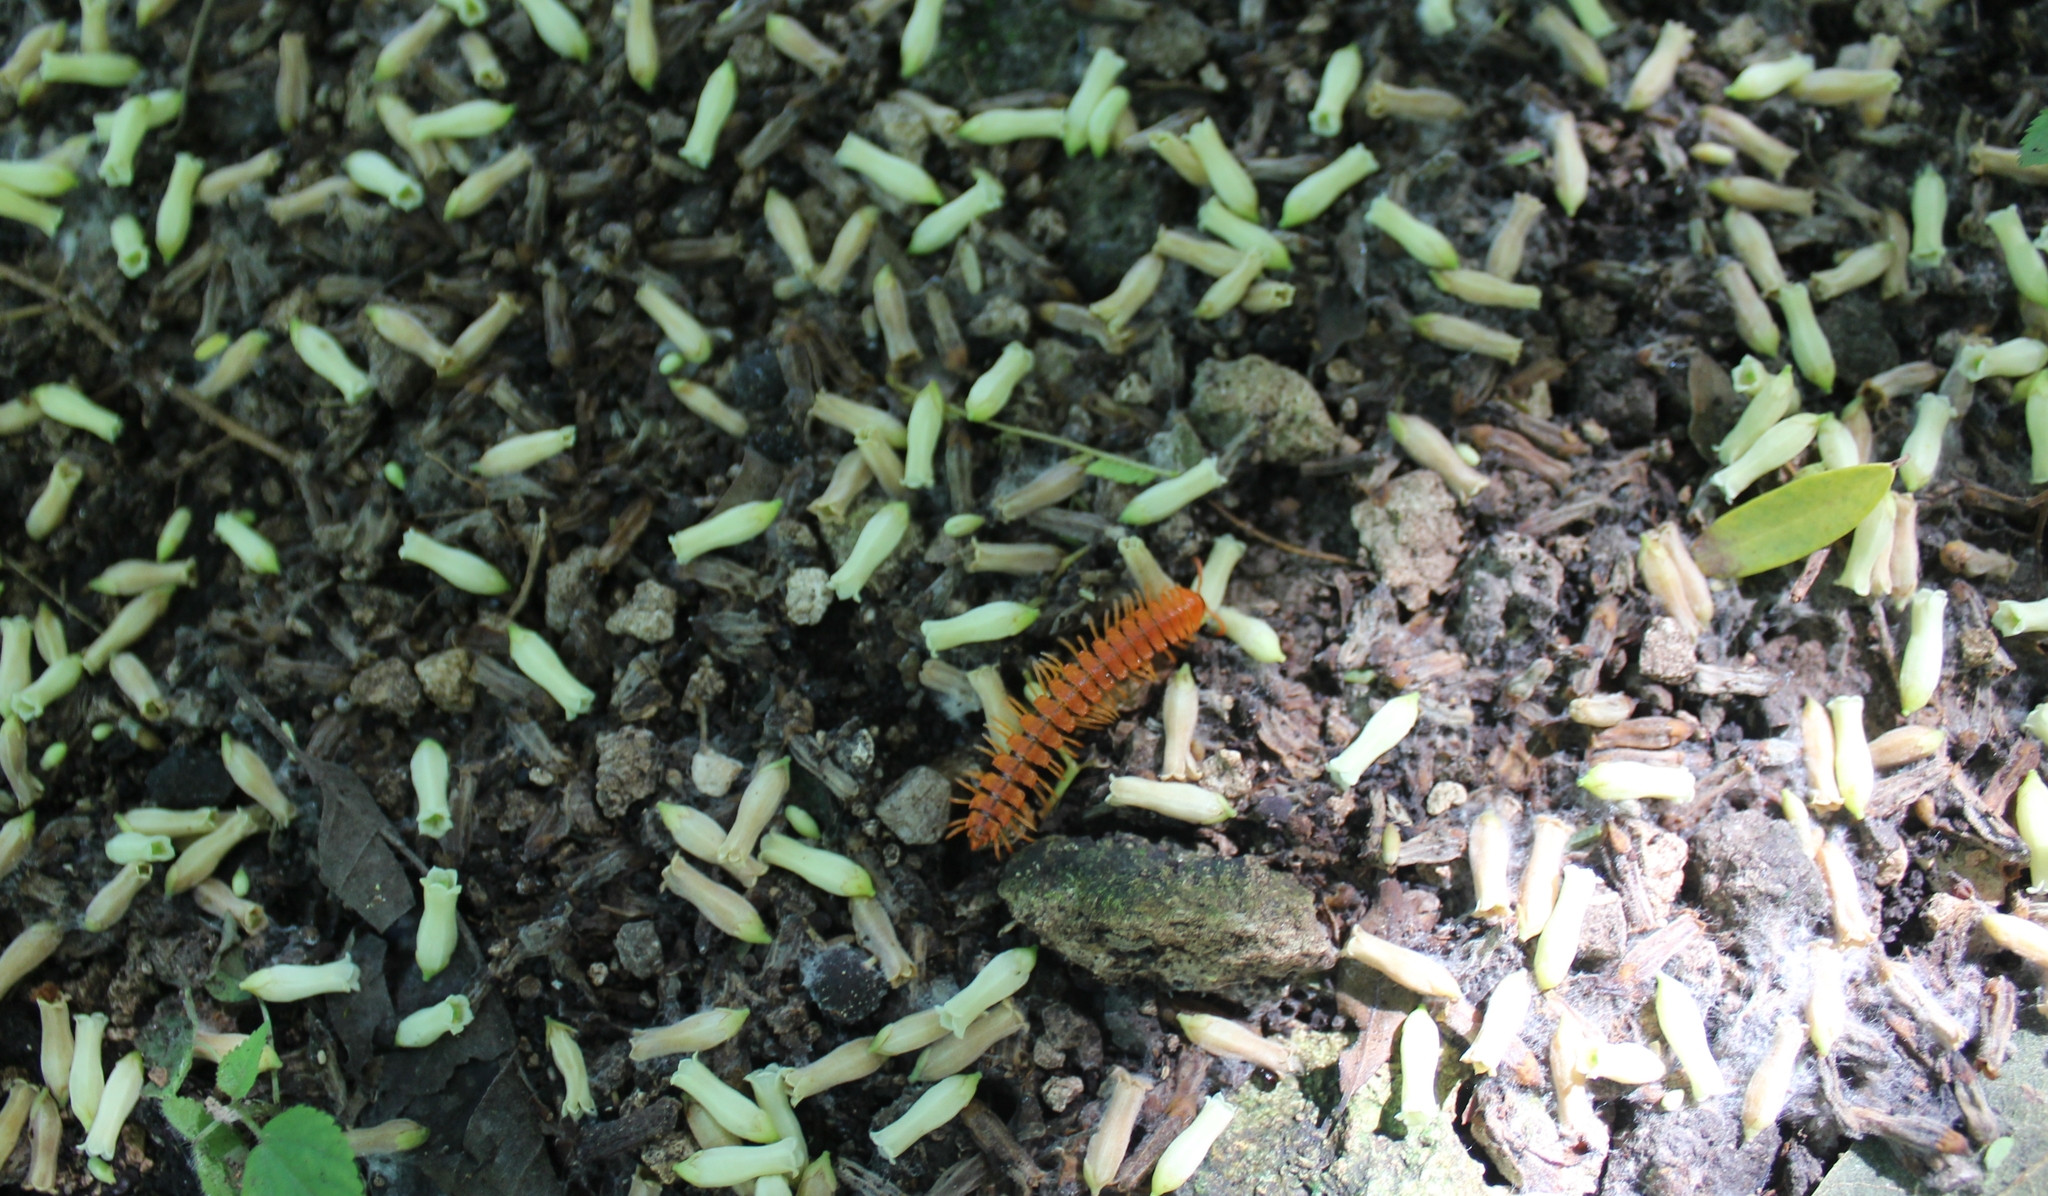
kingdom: Animalia
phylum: Arthropoda
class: Diplopoda
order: Polydesmida
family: Rhachodesmidae
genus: Aceratophallus
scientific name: Aceratophallus maya
